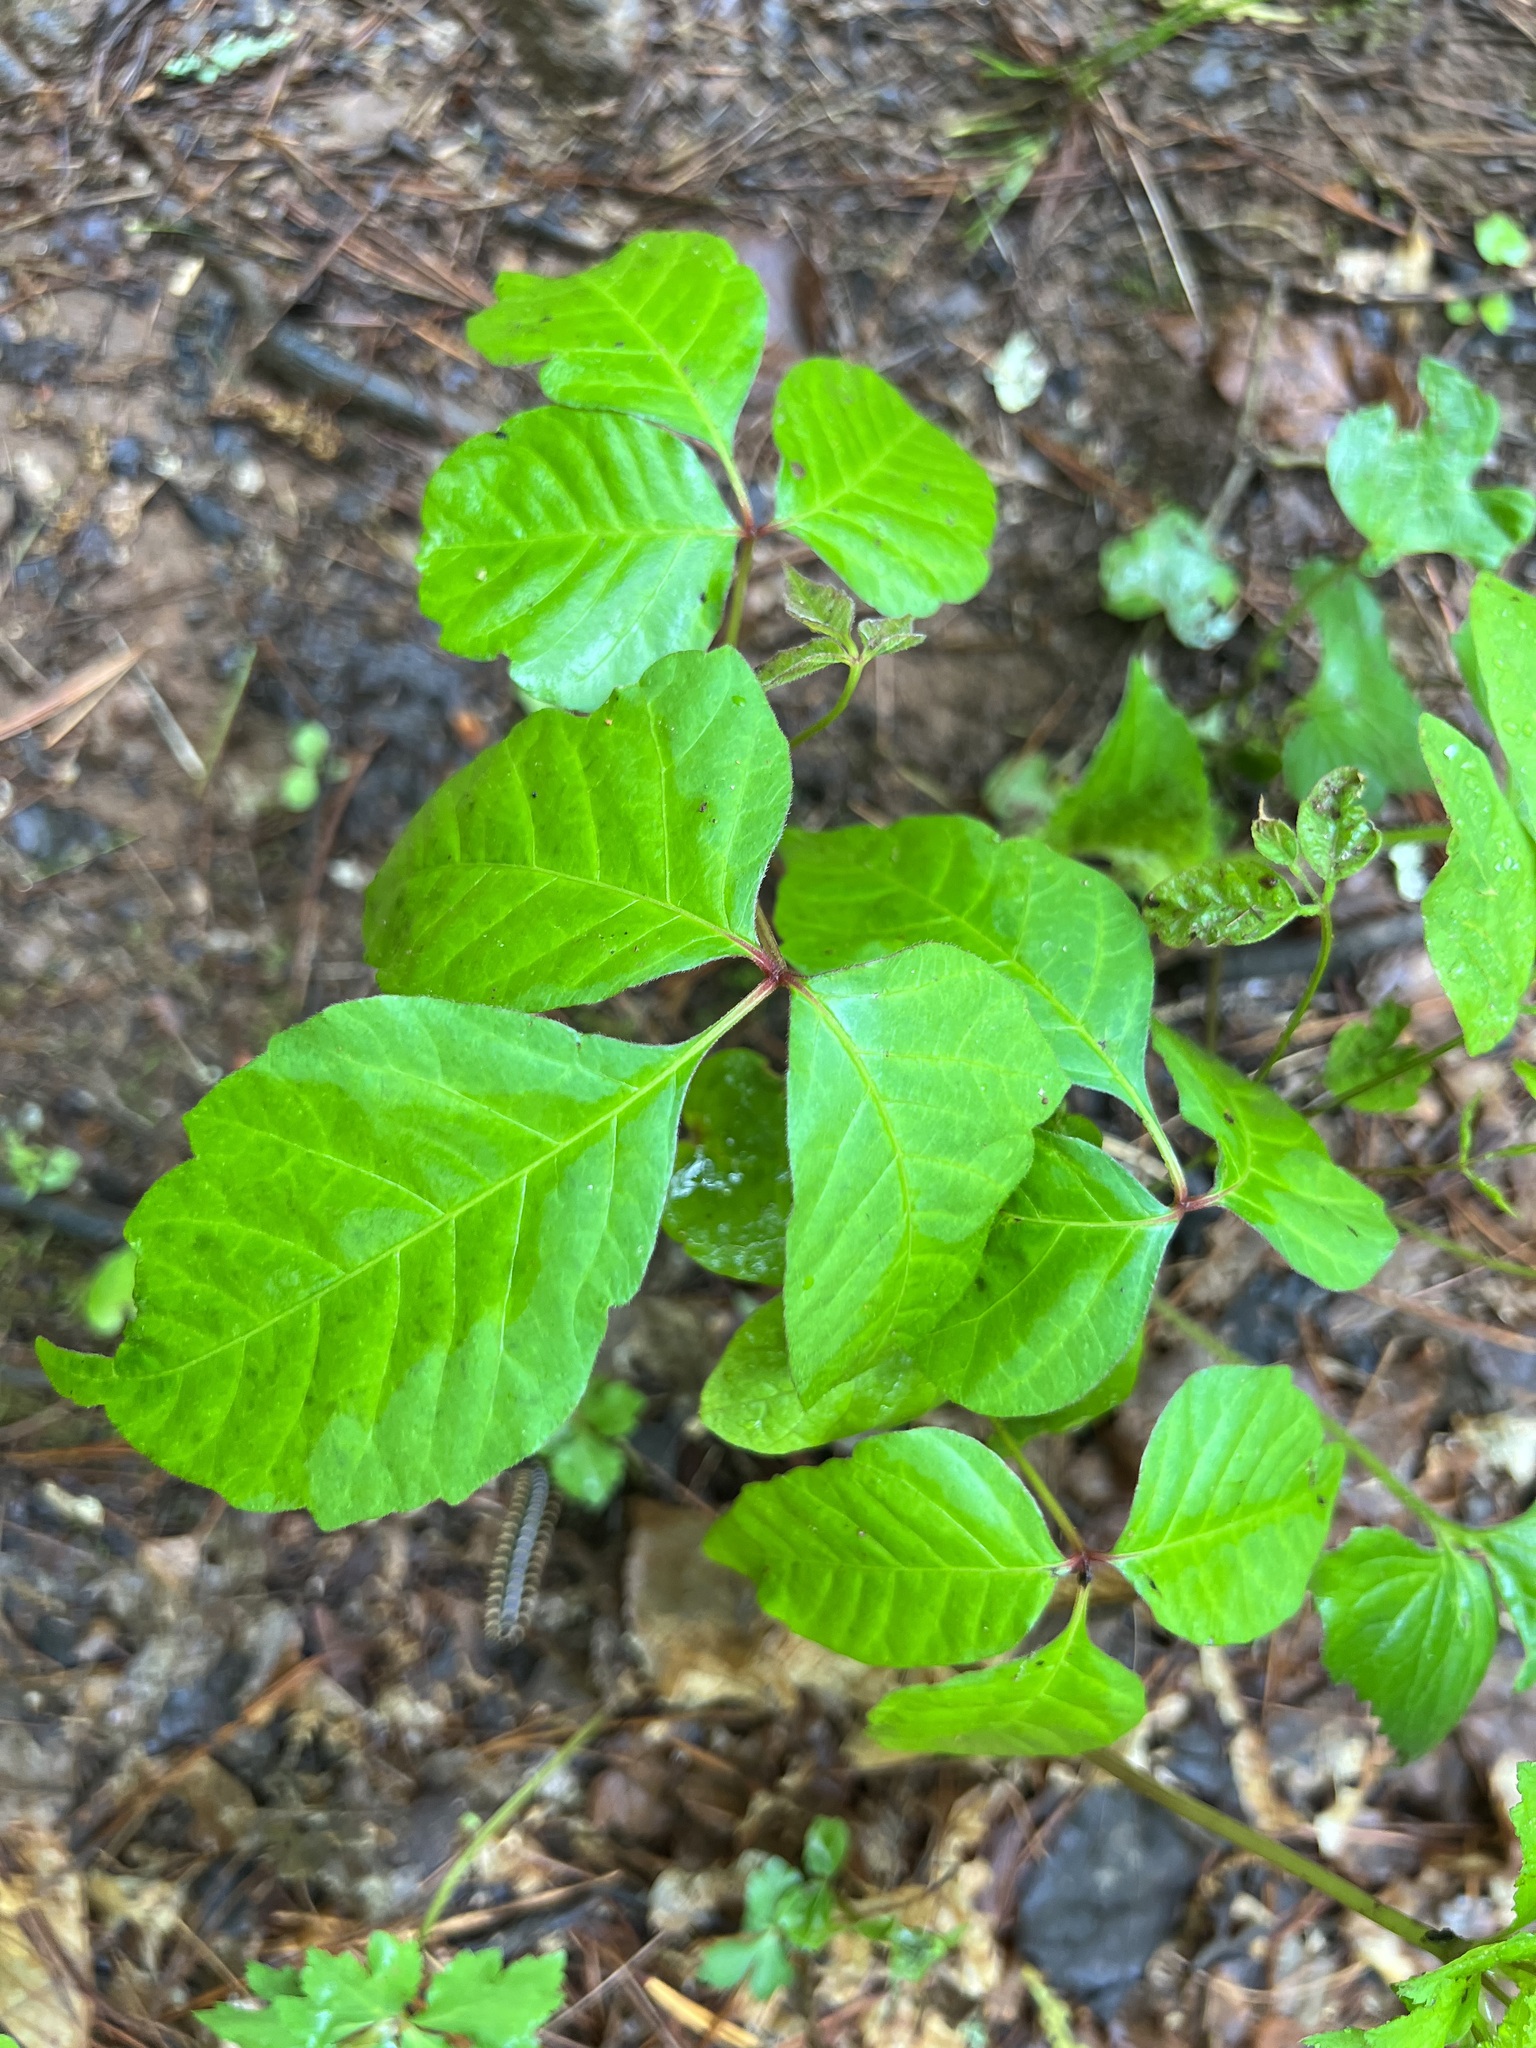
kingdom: Plantae
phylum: Tracheophyta
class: Magnoliopsida
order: Sapindales
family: Anacardiaceae
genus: Toxicodendron
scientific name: Toxicodendron radicans
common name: Poison ivy
